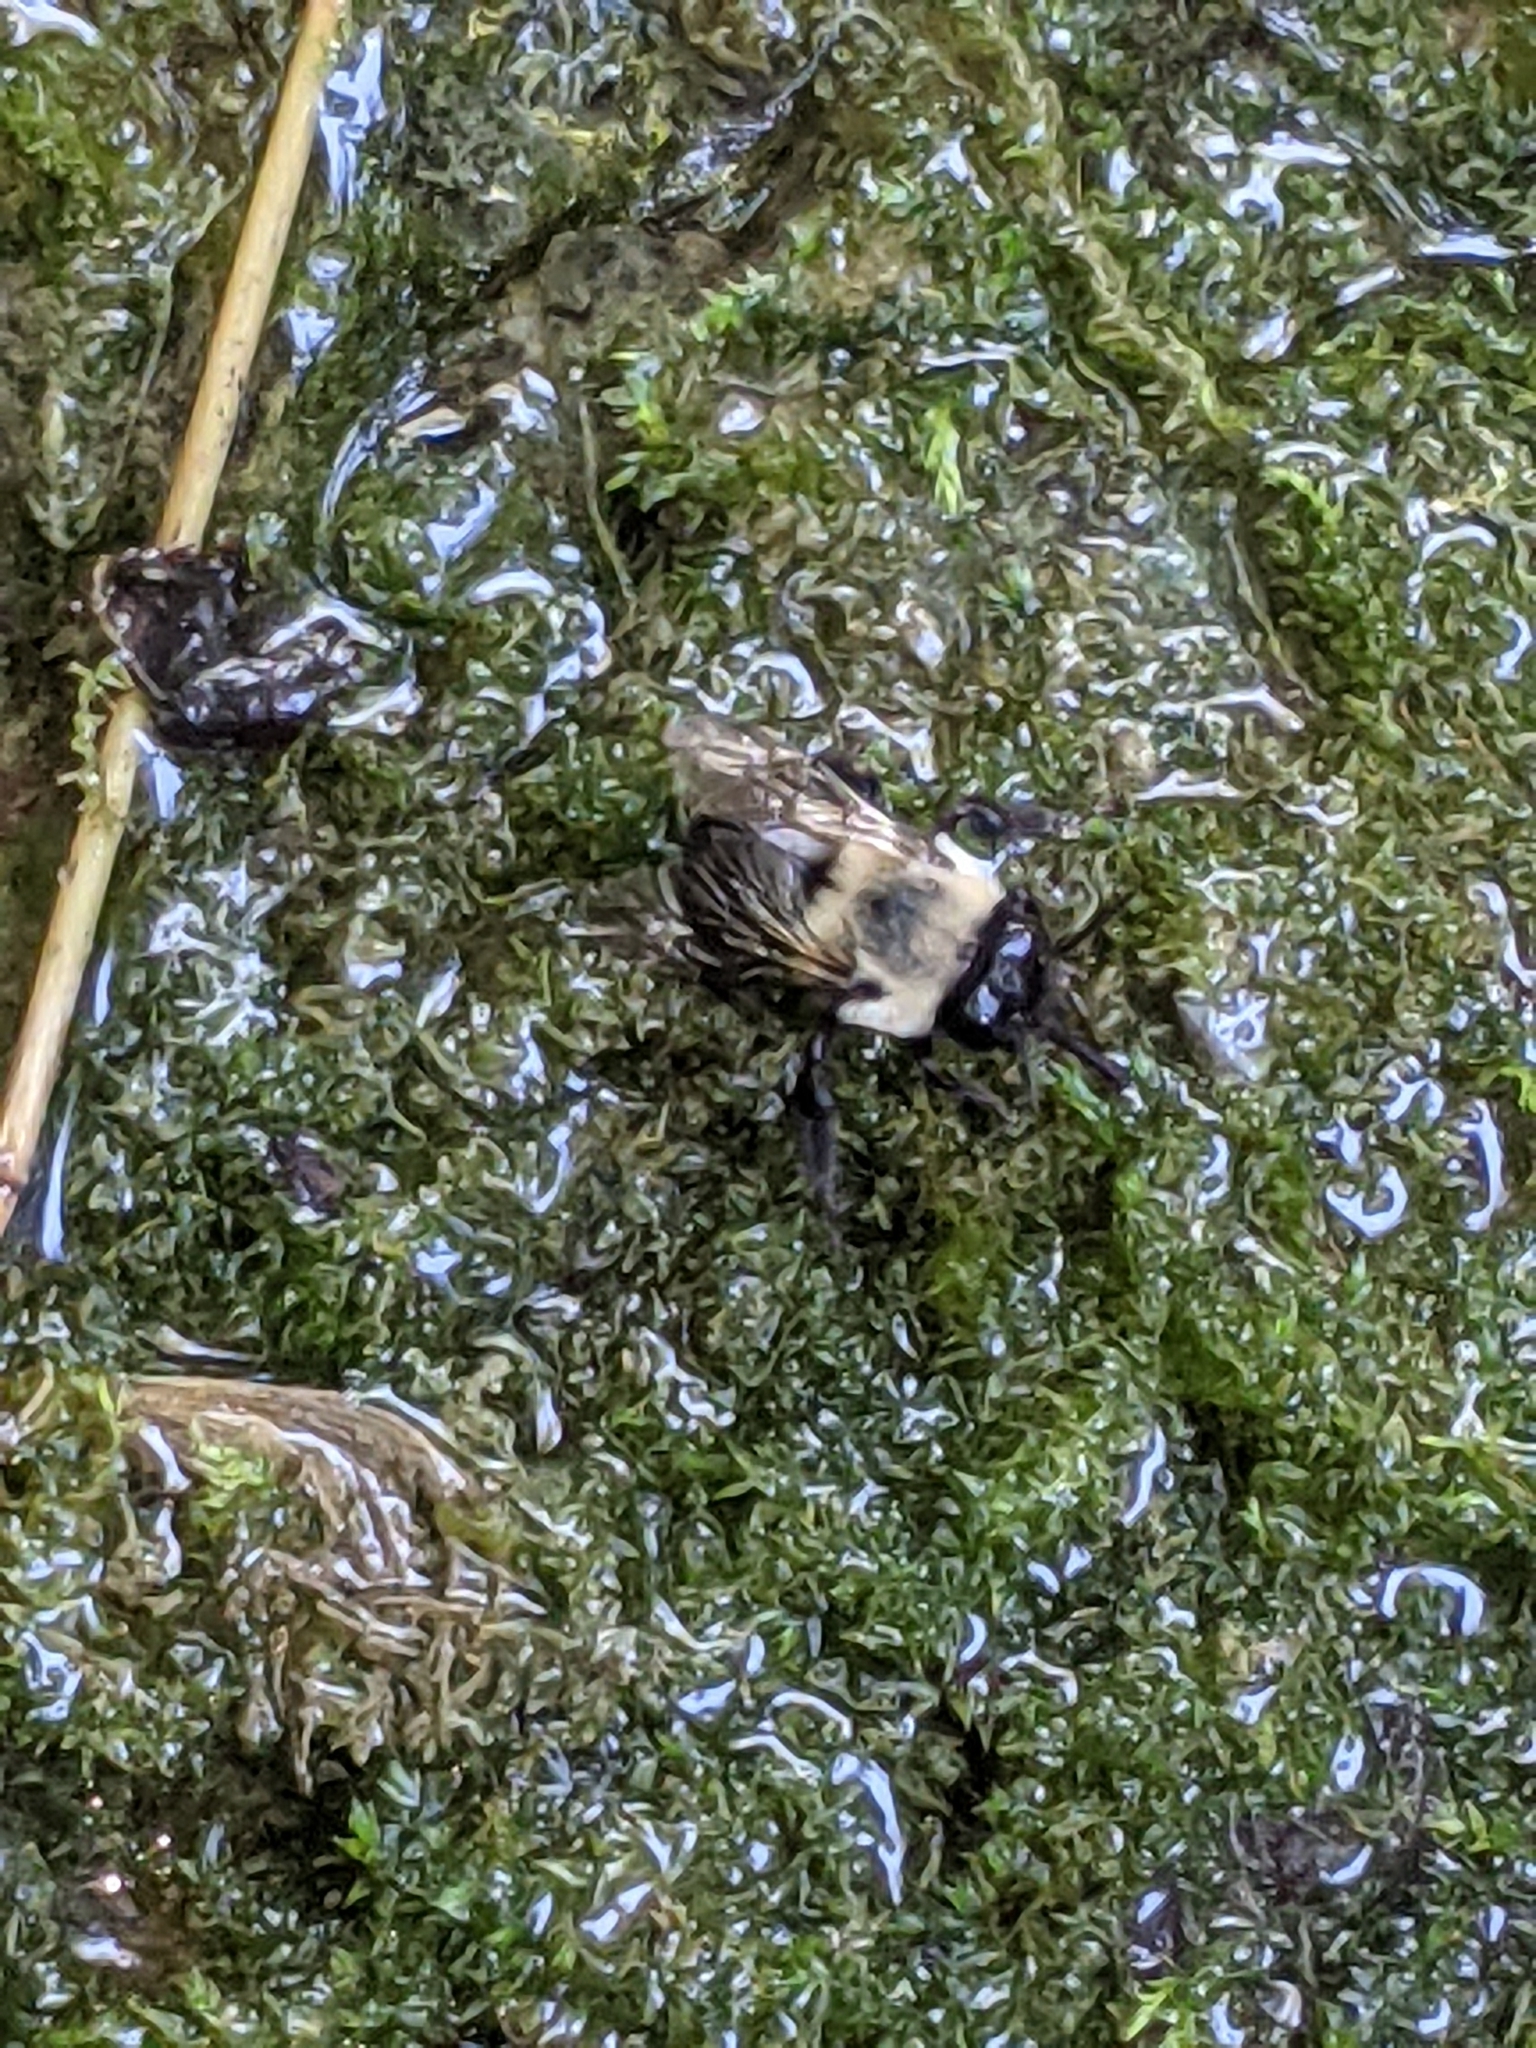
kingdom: Animalia
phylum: Arthropoda
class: Insecta
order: Hymenoptera
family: Apidae
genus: Anthophora
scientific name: Anthophora abrupta
